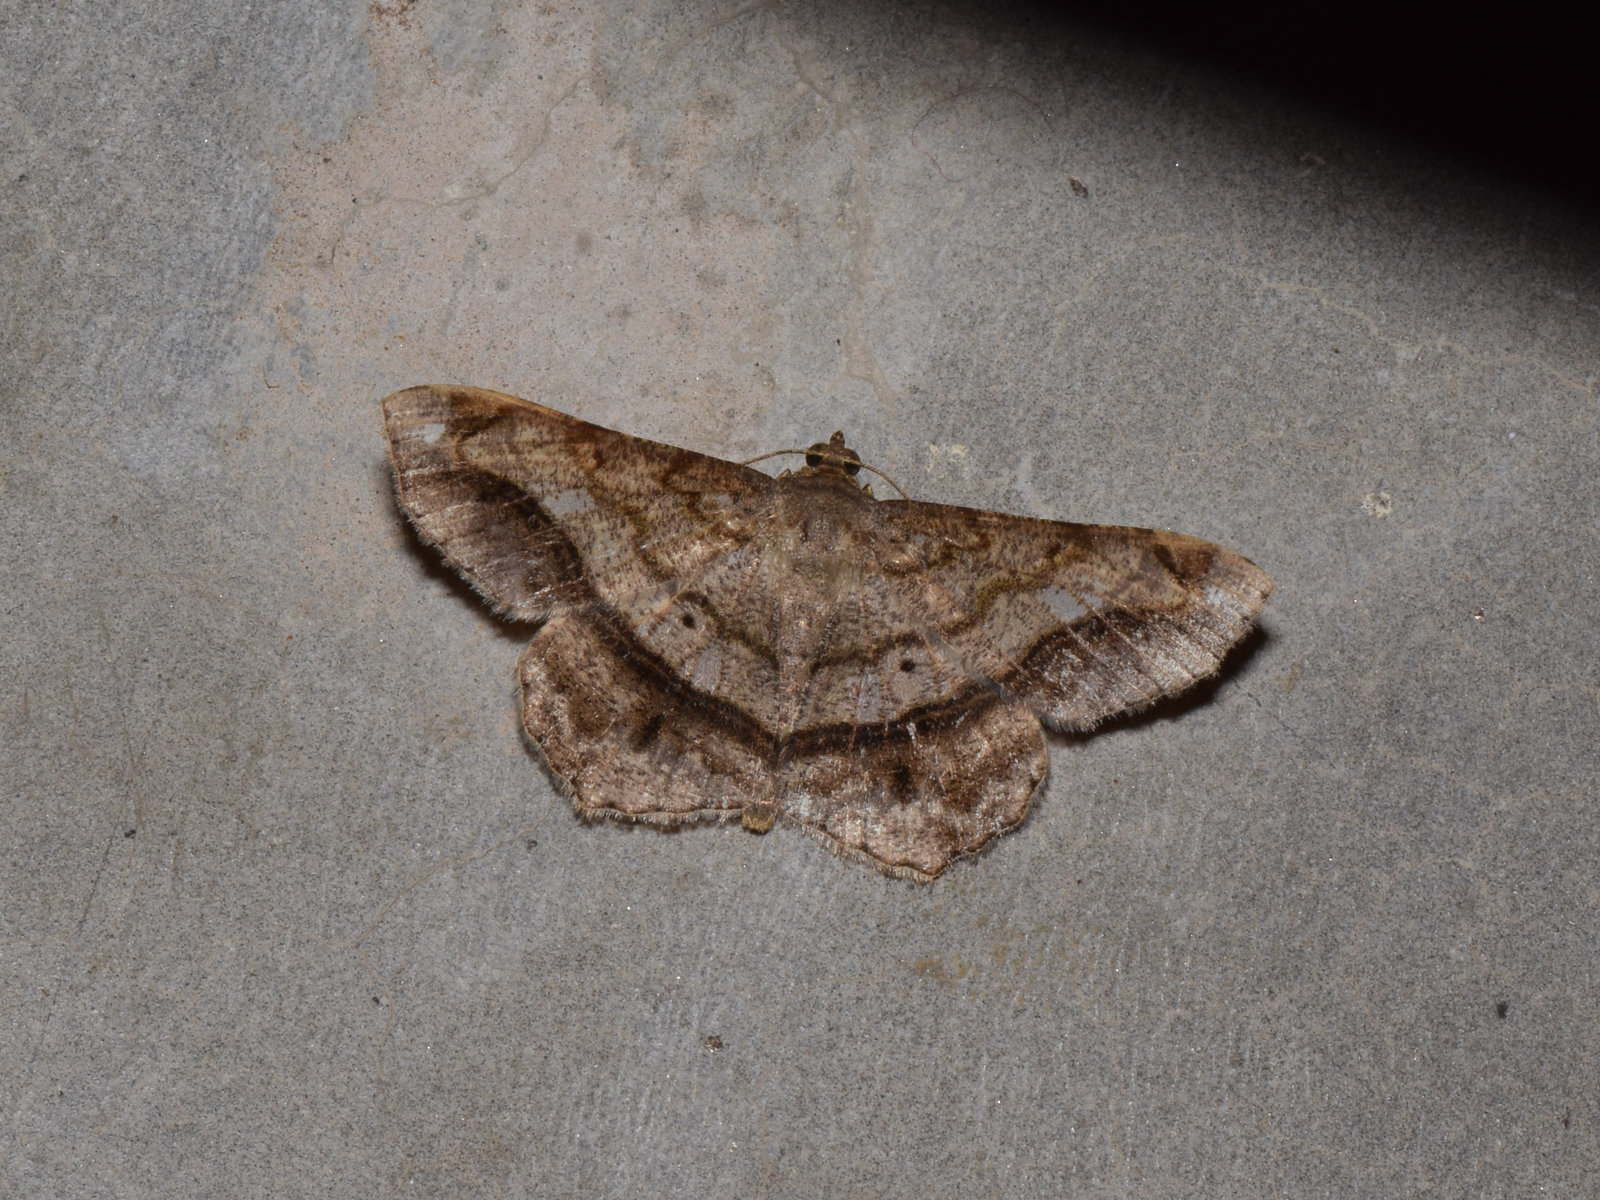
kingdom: Animalia
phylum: Arthropoda
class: Insecta
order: Lepidoptera
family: Geometridae
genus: Chiasmia
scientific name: Chiasmia azataria
